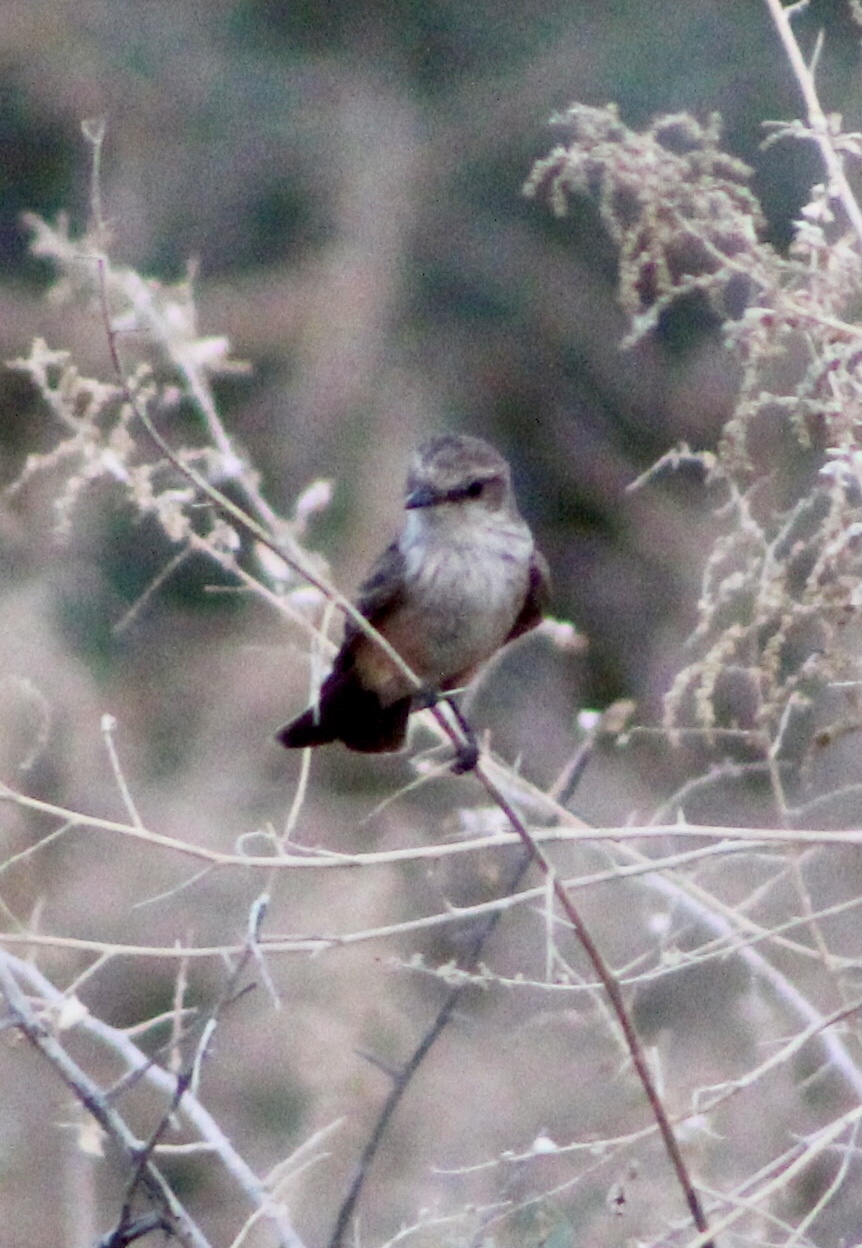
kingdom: Animalia
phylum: Chordata
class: Aves
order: Passeriformes
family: Tyrannidae
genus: Pyrocephalus
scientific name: Pyrocephalus rubinus
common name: Vermilion flycatcher
